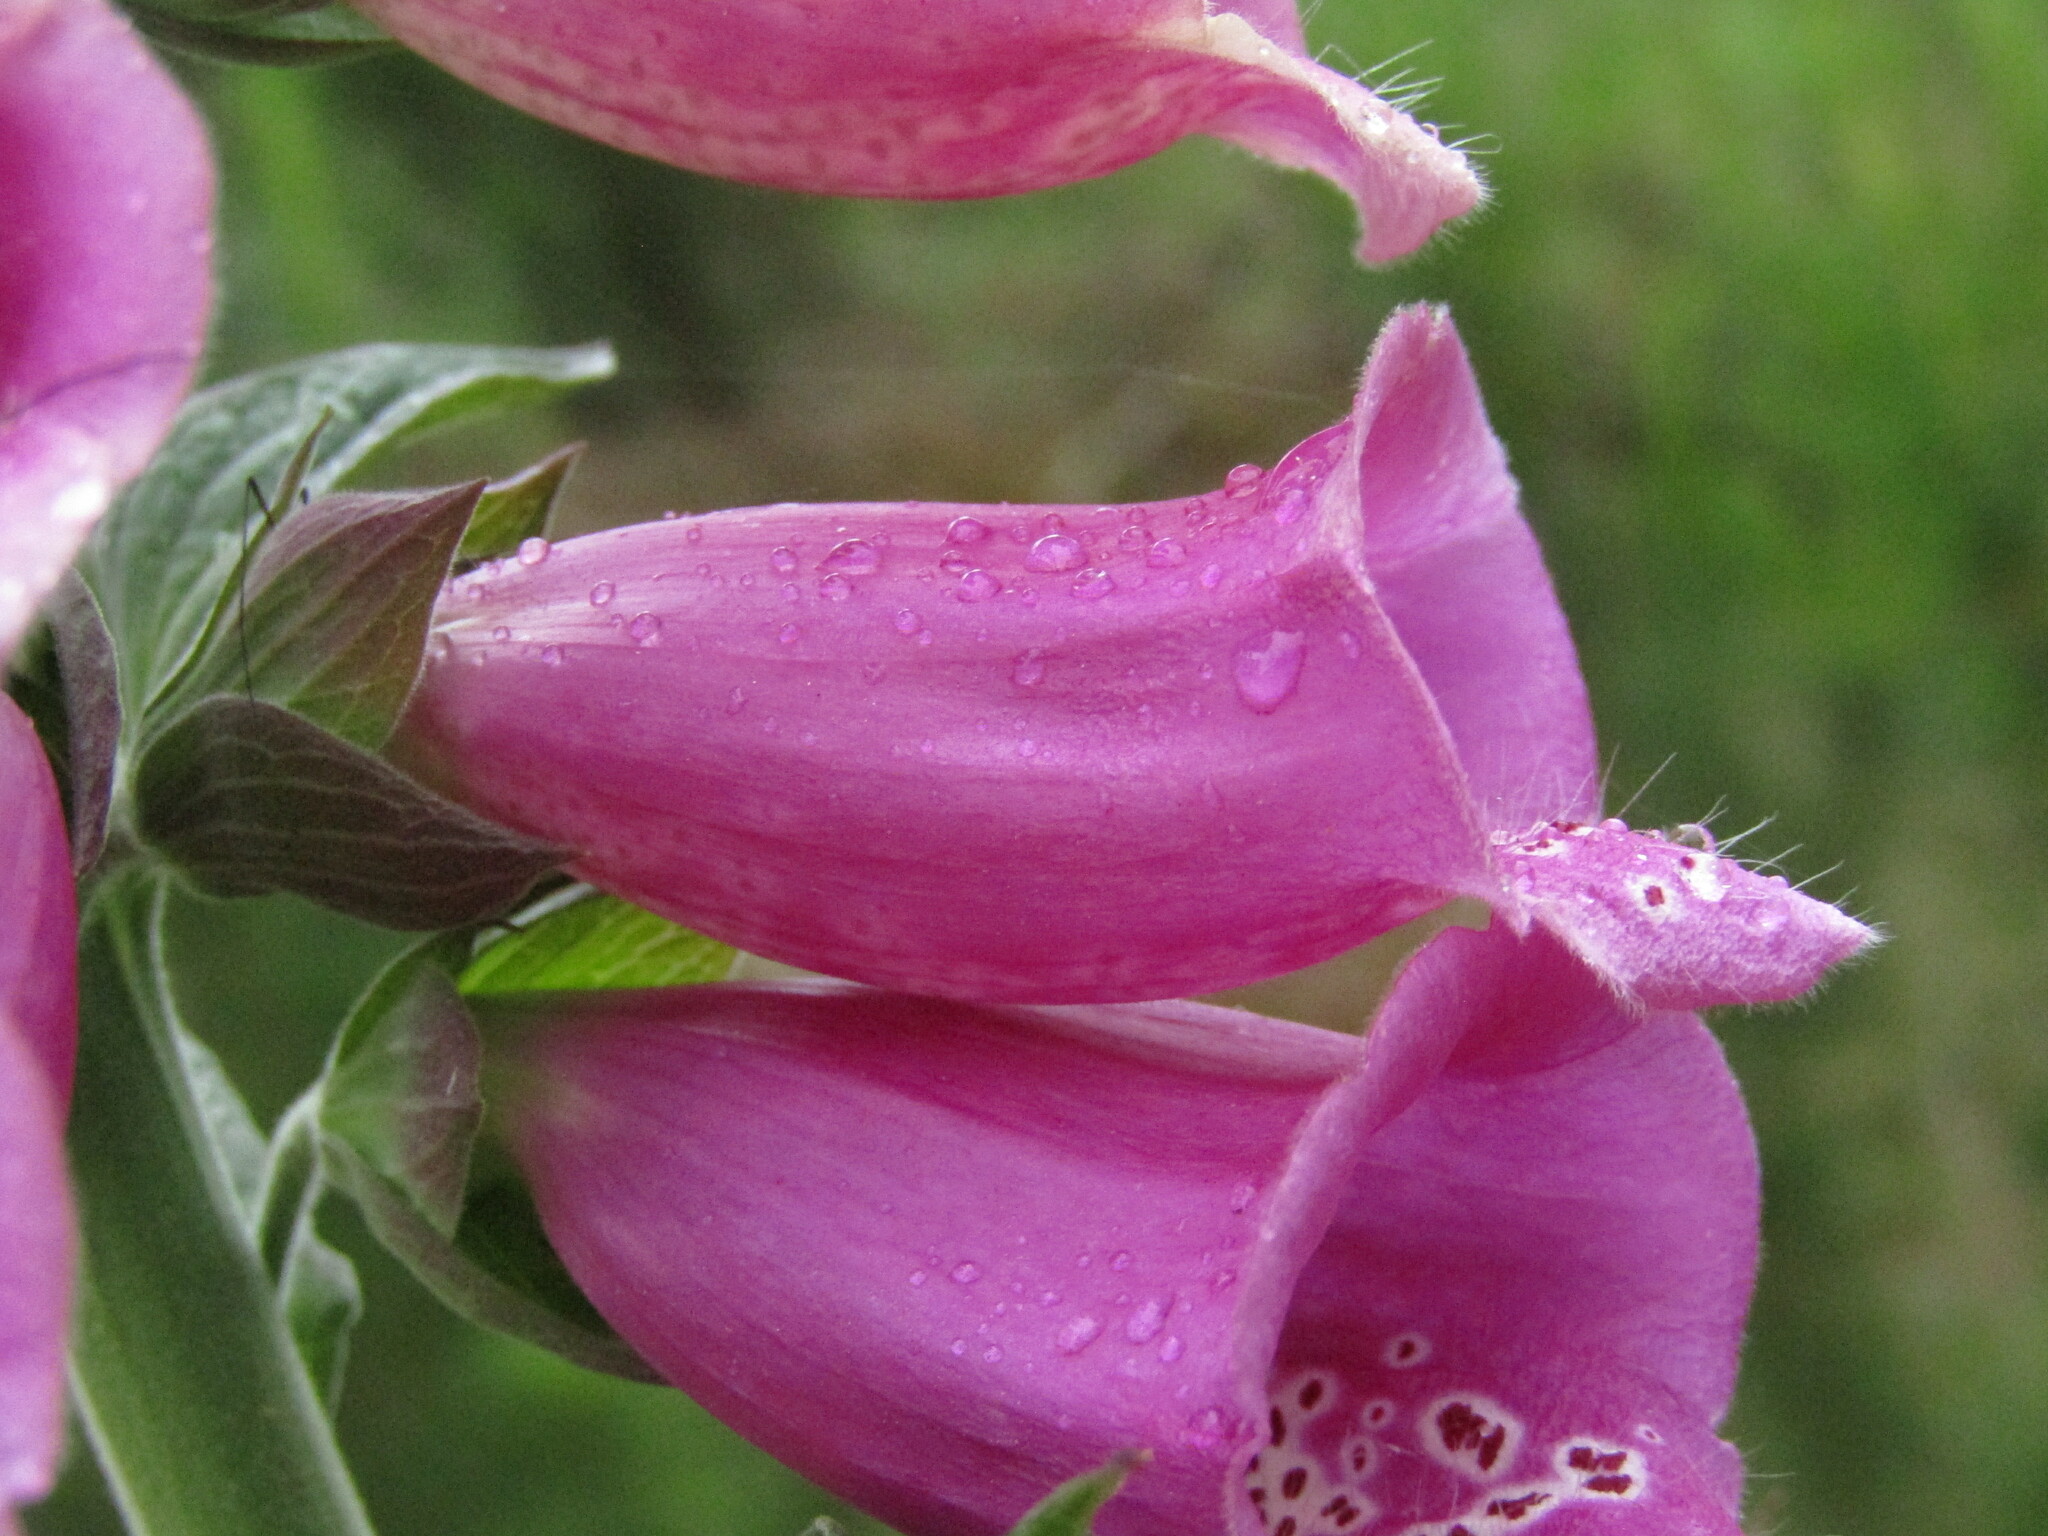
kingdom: Plantae
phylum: Tracheophyta
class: Magnoliopsida
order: Lamiales
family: Plantaginaceae
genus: Digitalis
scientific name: Digitalis purpurea
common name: Foxglove
